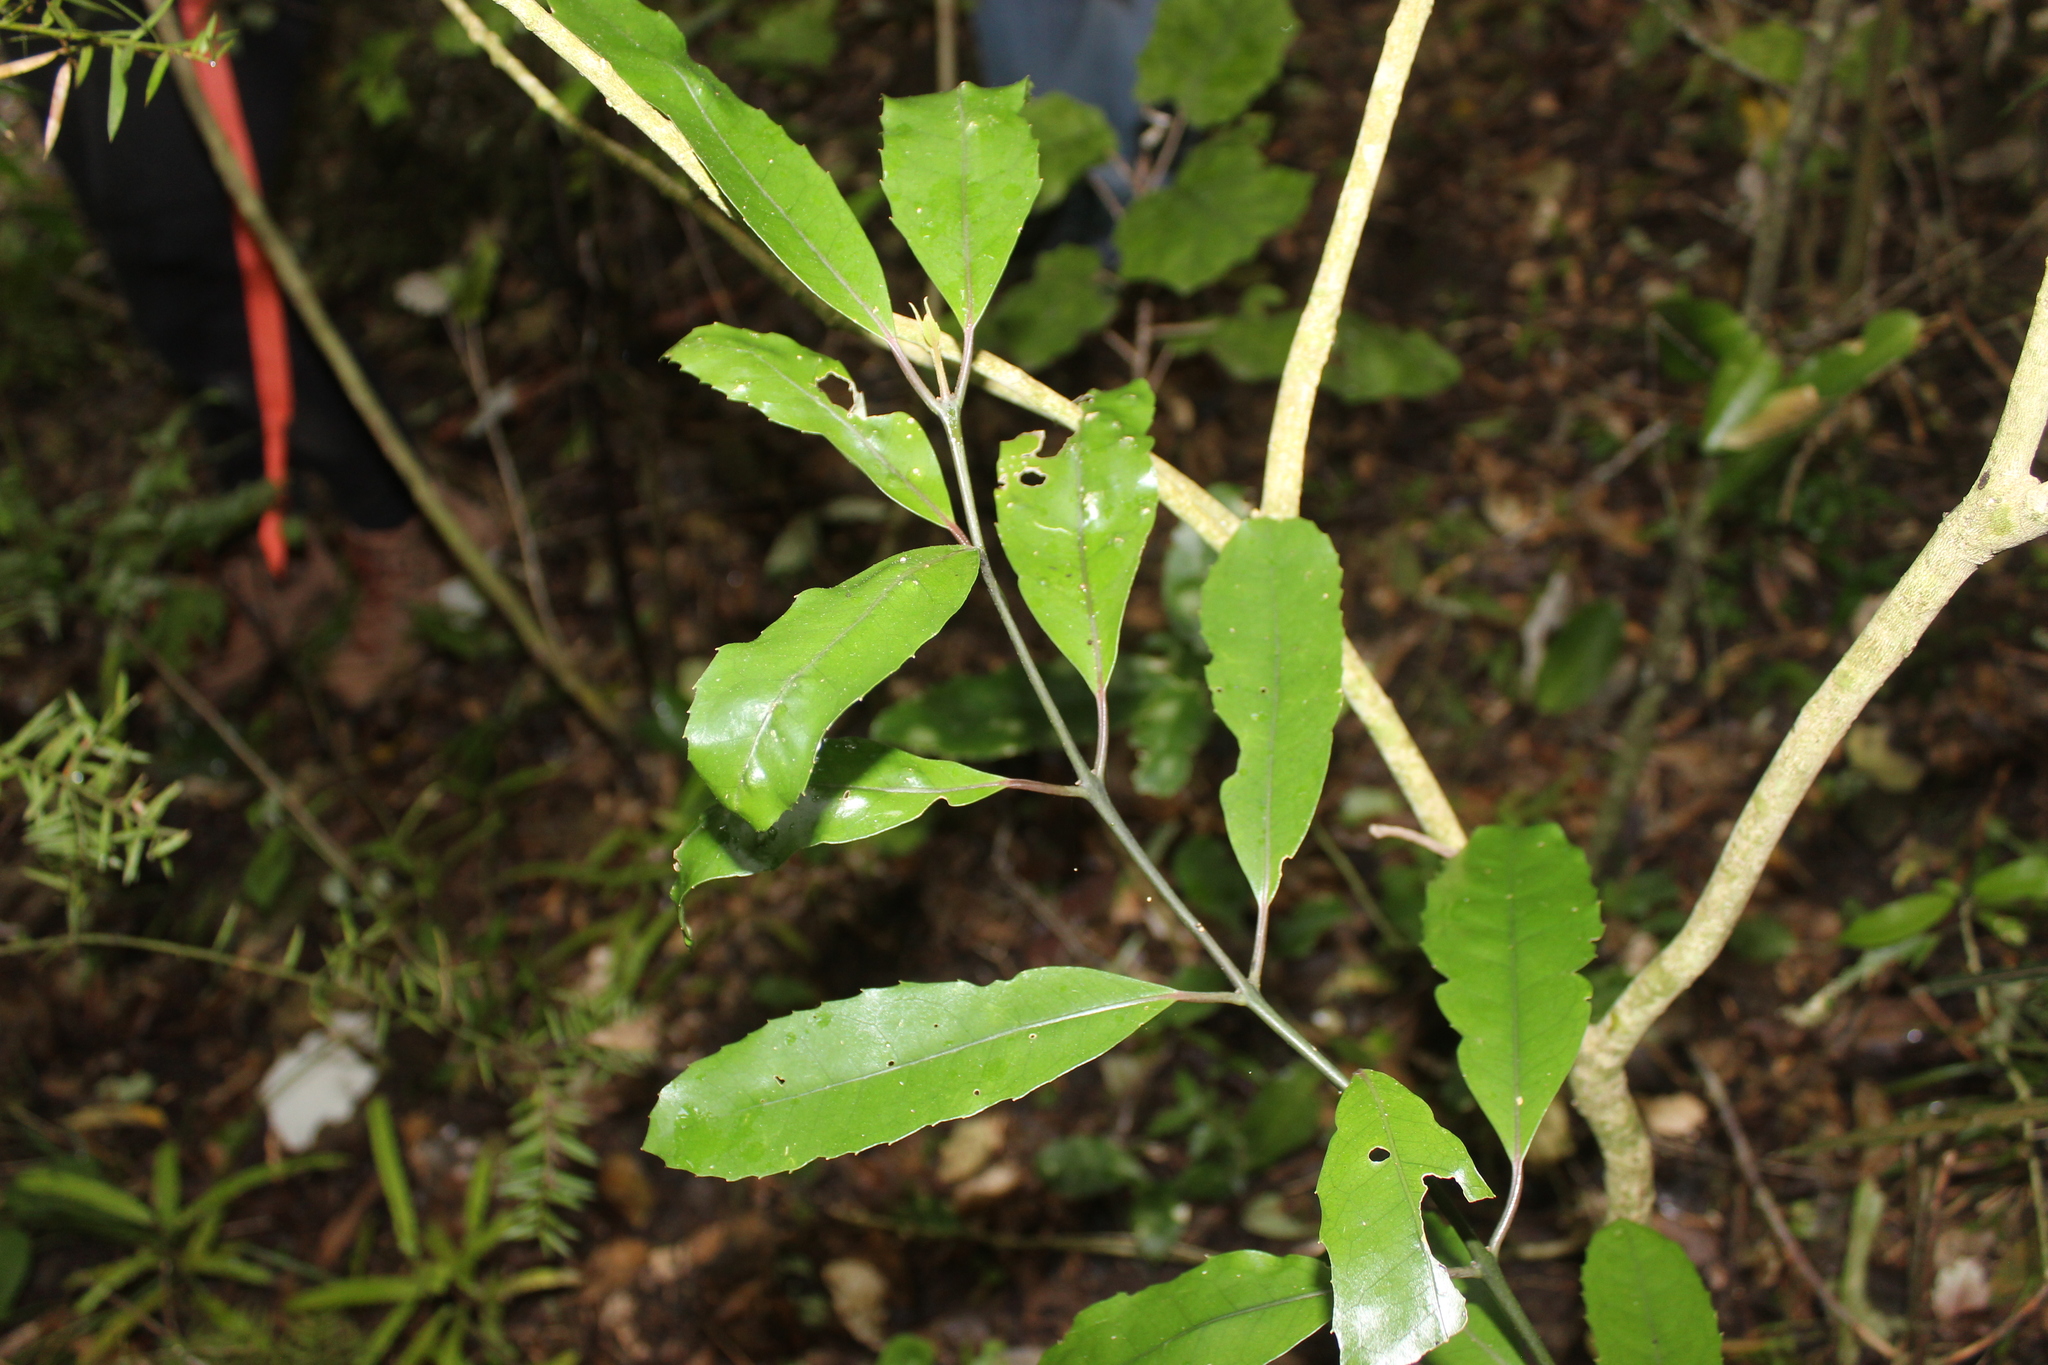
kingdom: Plantae
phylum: Tracheophyta
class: Magnoliopsida
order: Laurales
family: Monimiaceae
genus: Hedycarya
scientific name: Hedycarya arborea
